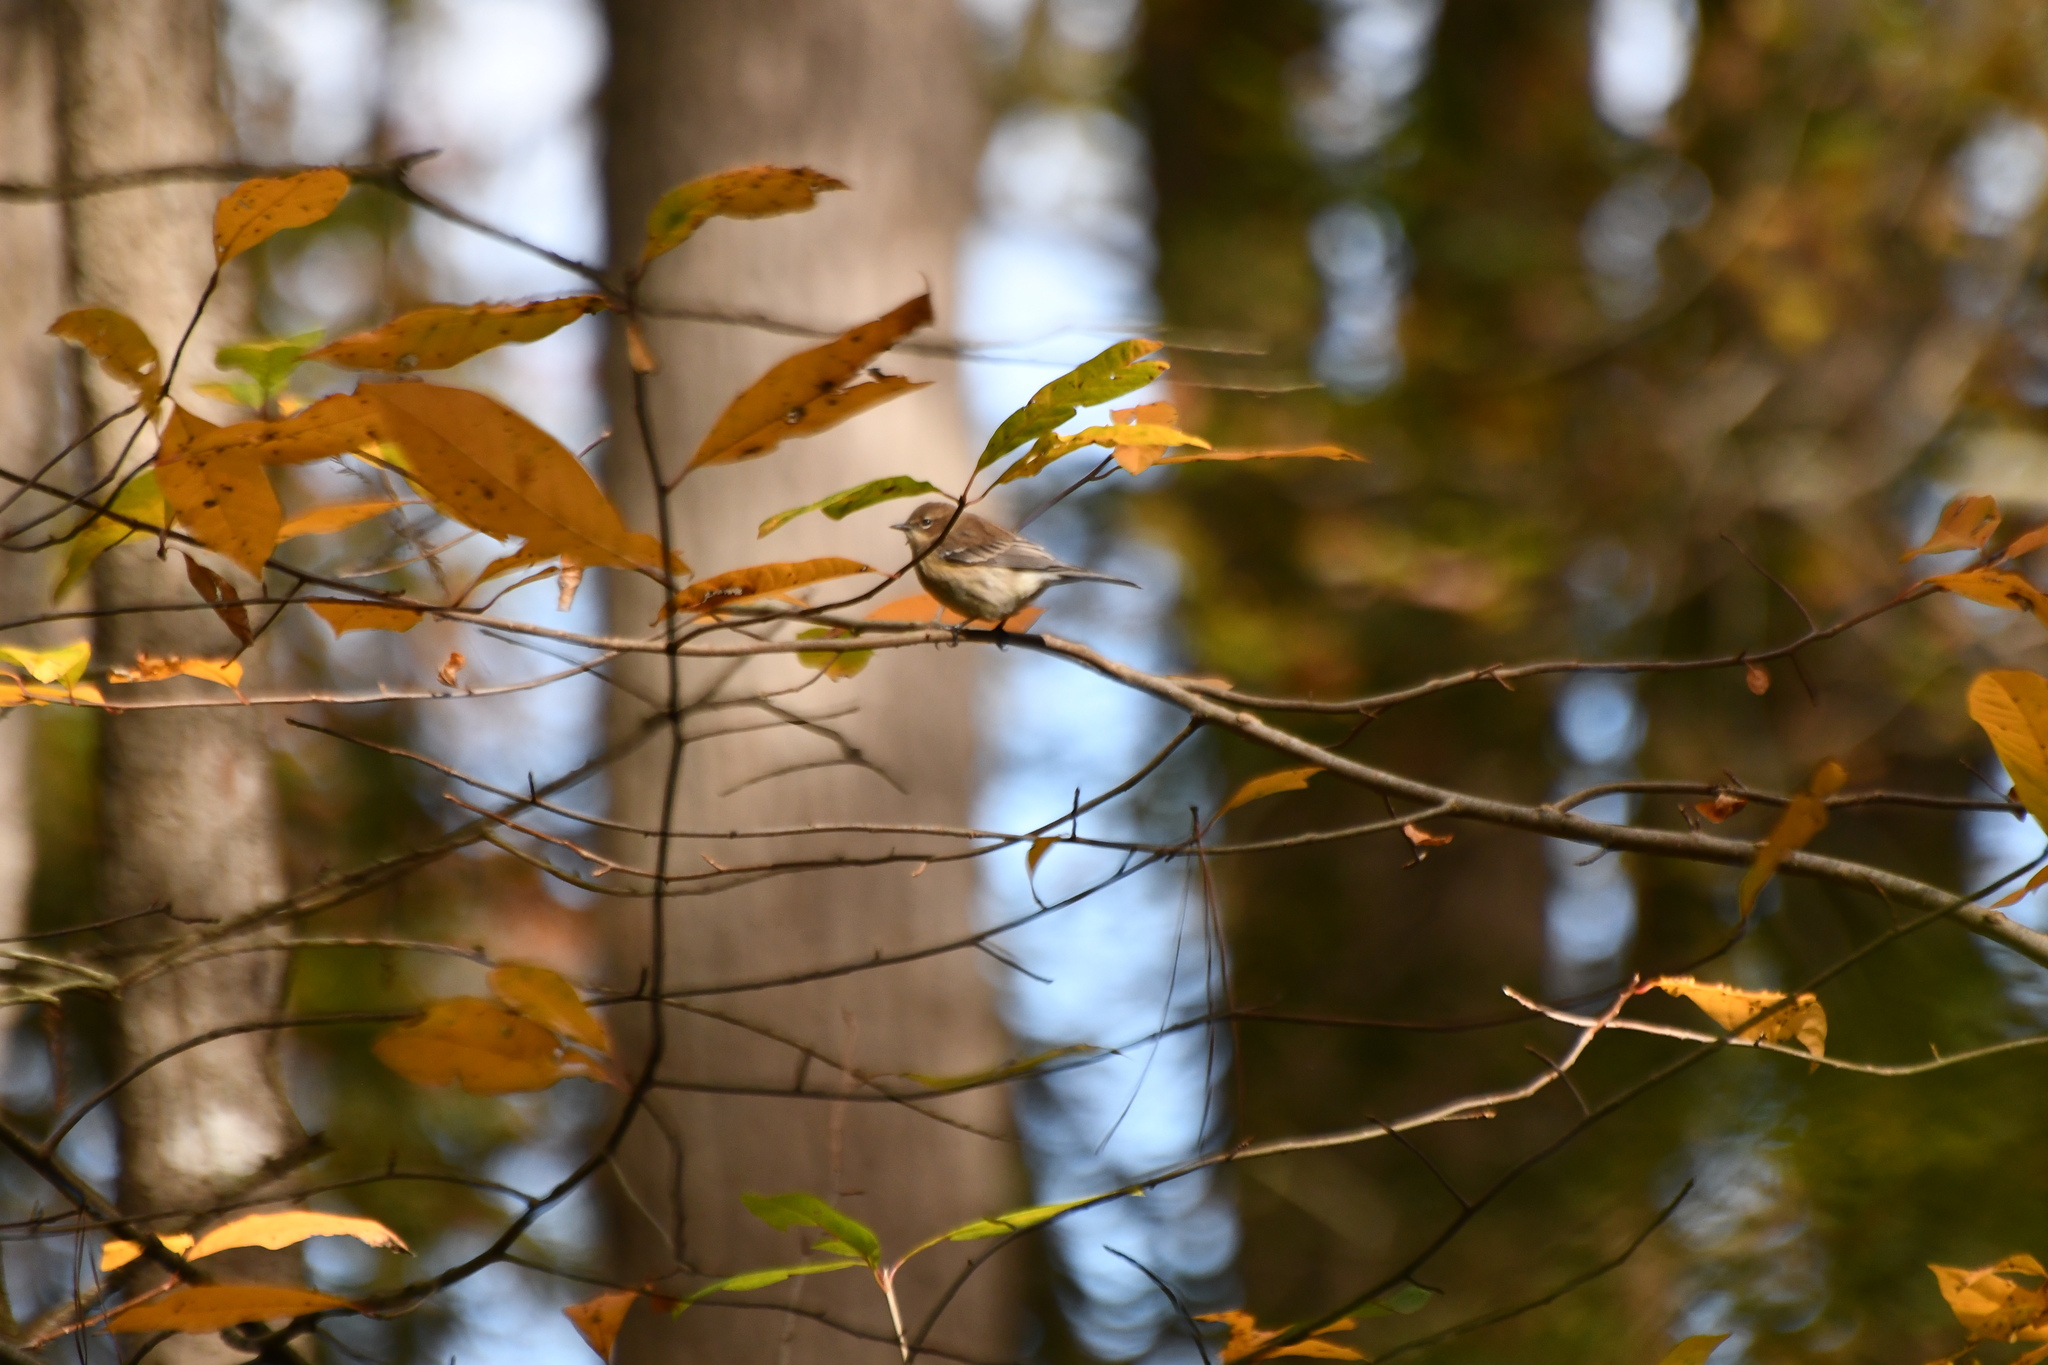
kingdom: Animalia
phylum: Chordata
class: Aves
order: Passeriformes
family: Parulidae
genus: Setophaga
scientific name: Setophaga coronata
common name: Myrtle warbler
